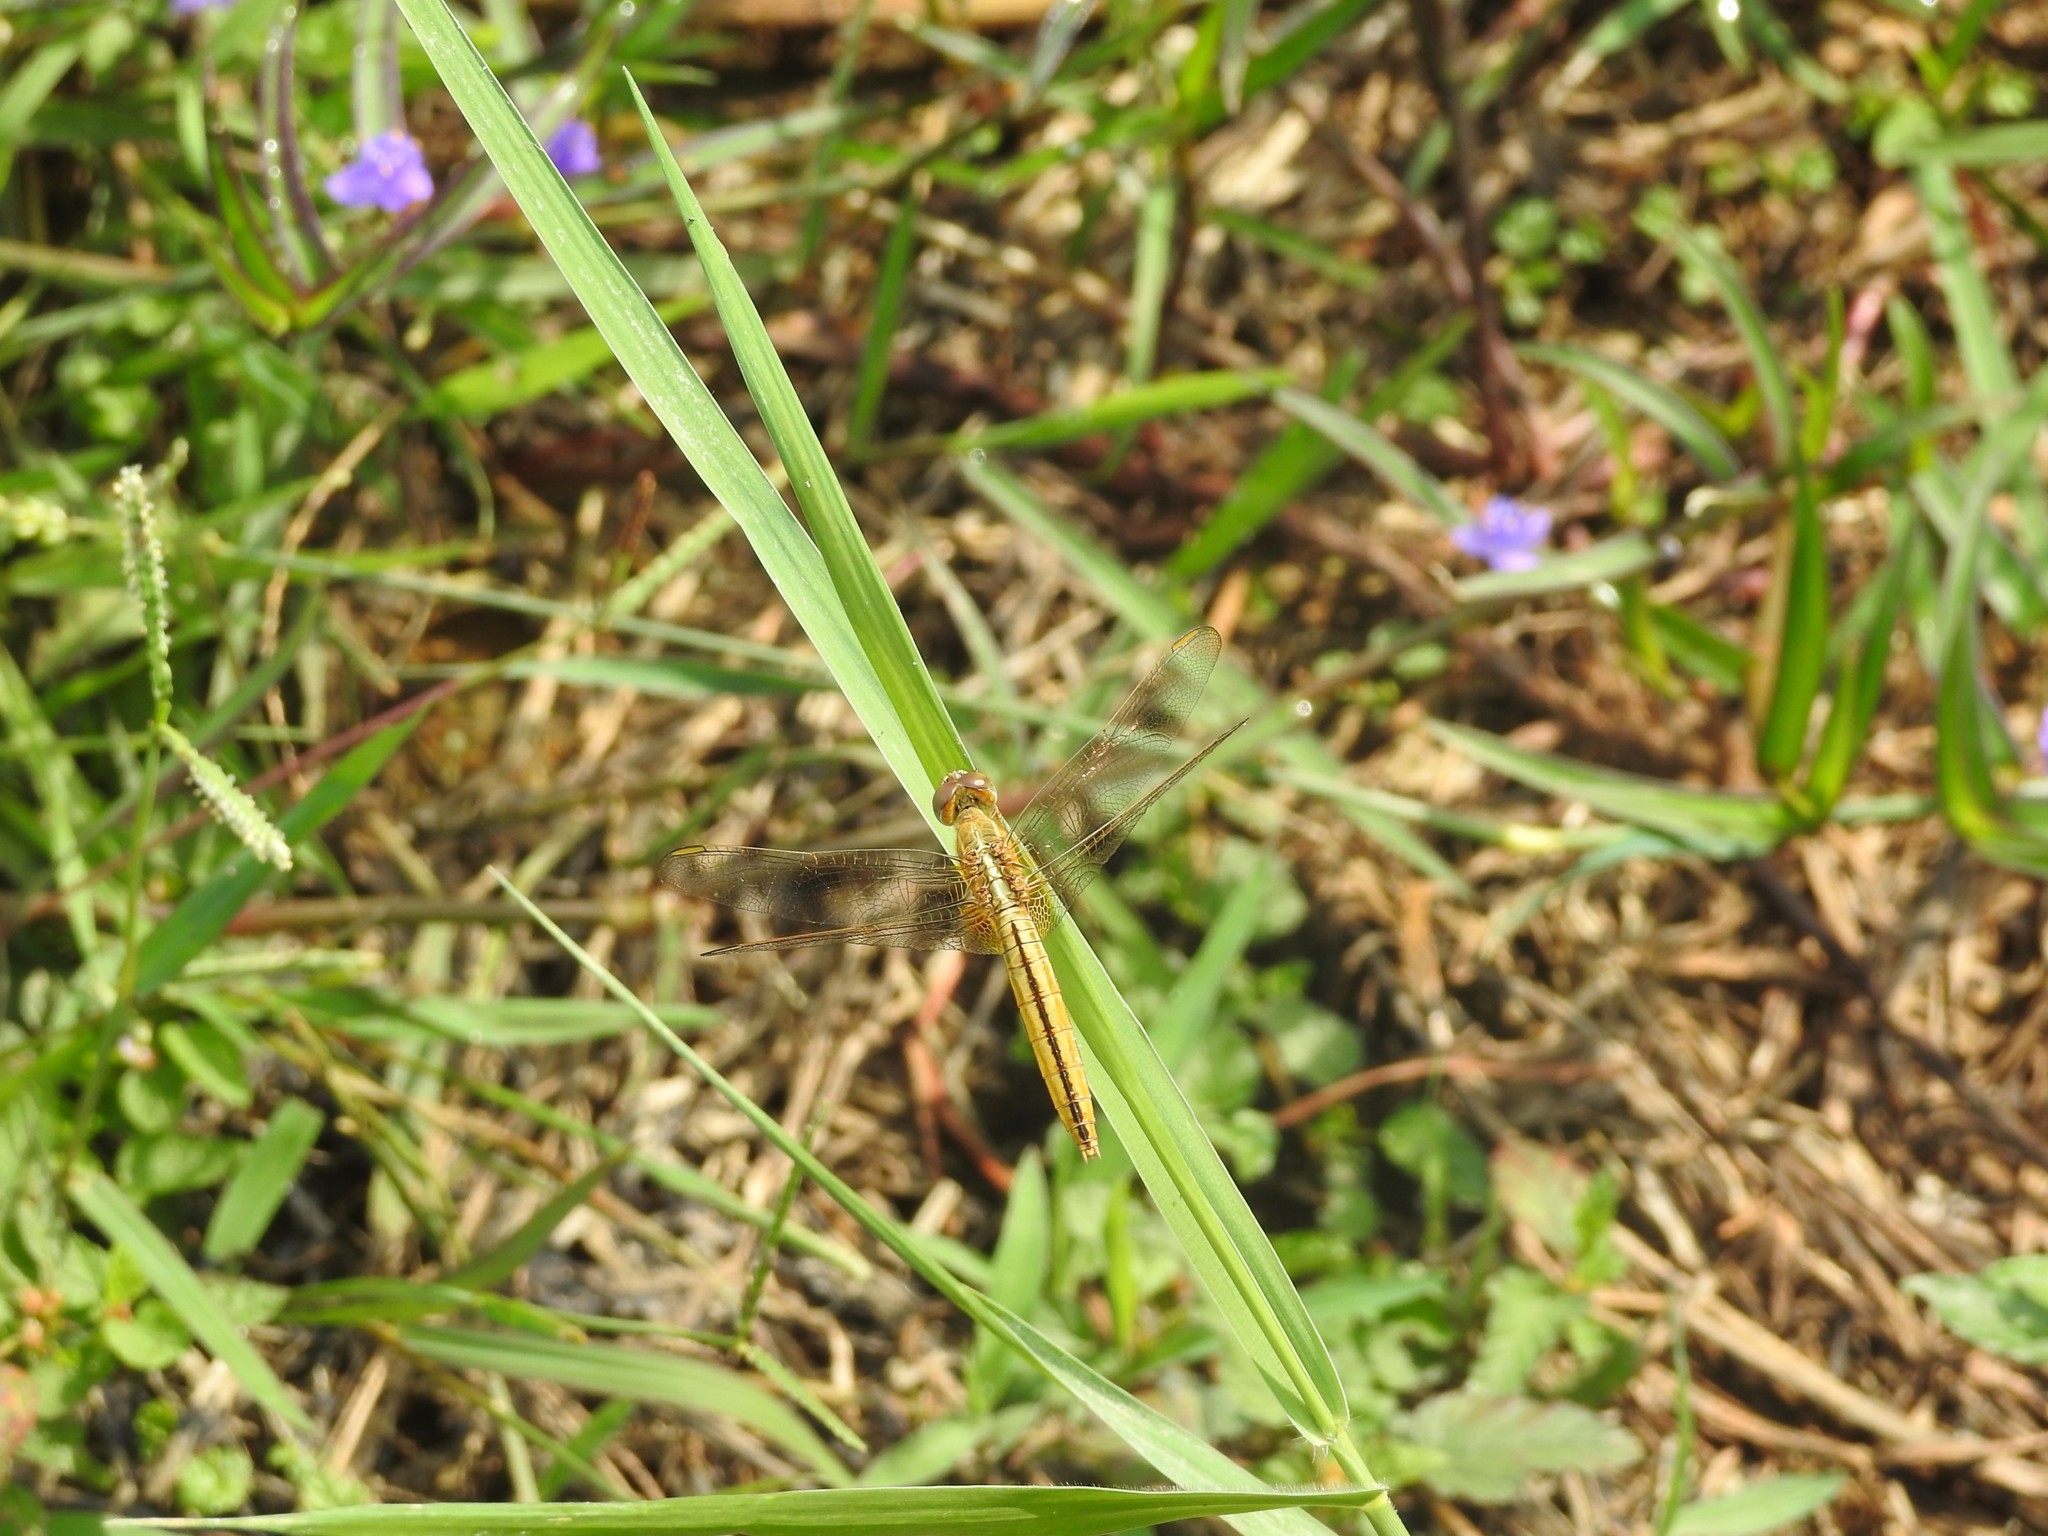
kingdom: Animalia
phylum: Arthropoda
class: Insecta
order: Odonata
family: Libellulidae
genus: Crocothemis
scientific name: Crocothemis servilia
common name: Scarlet skimmer
